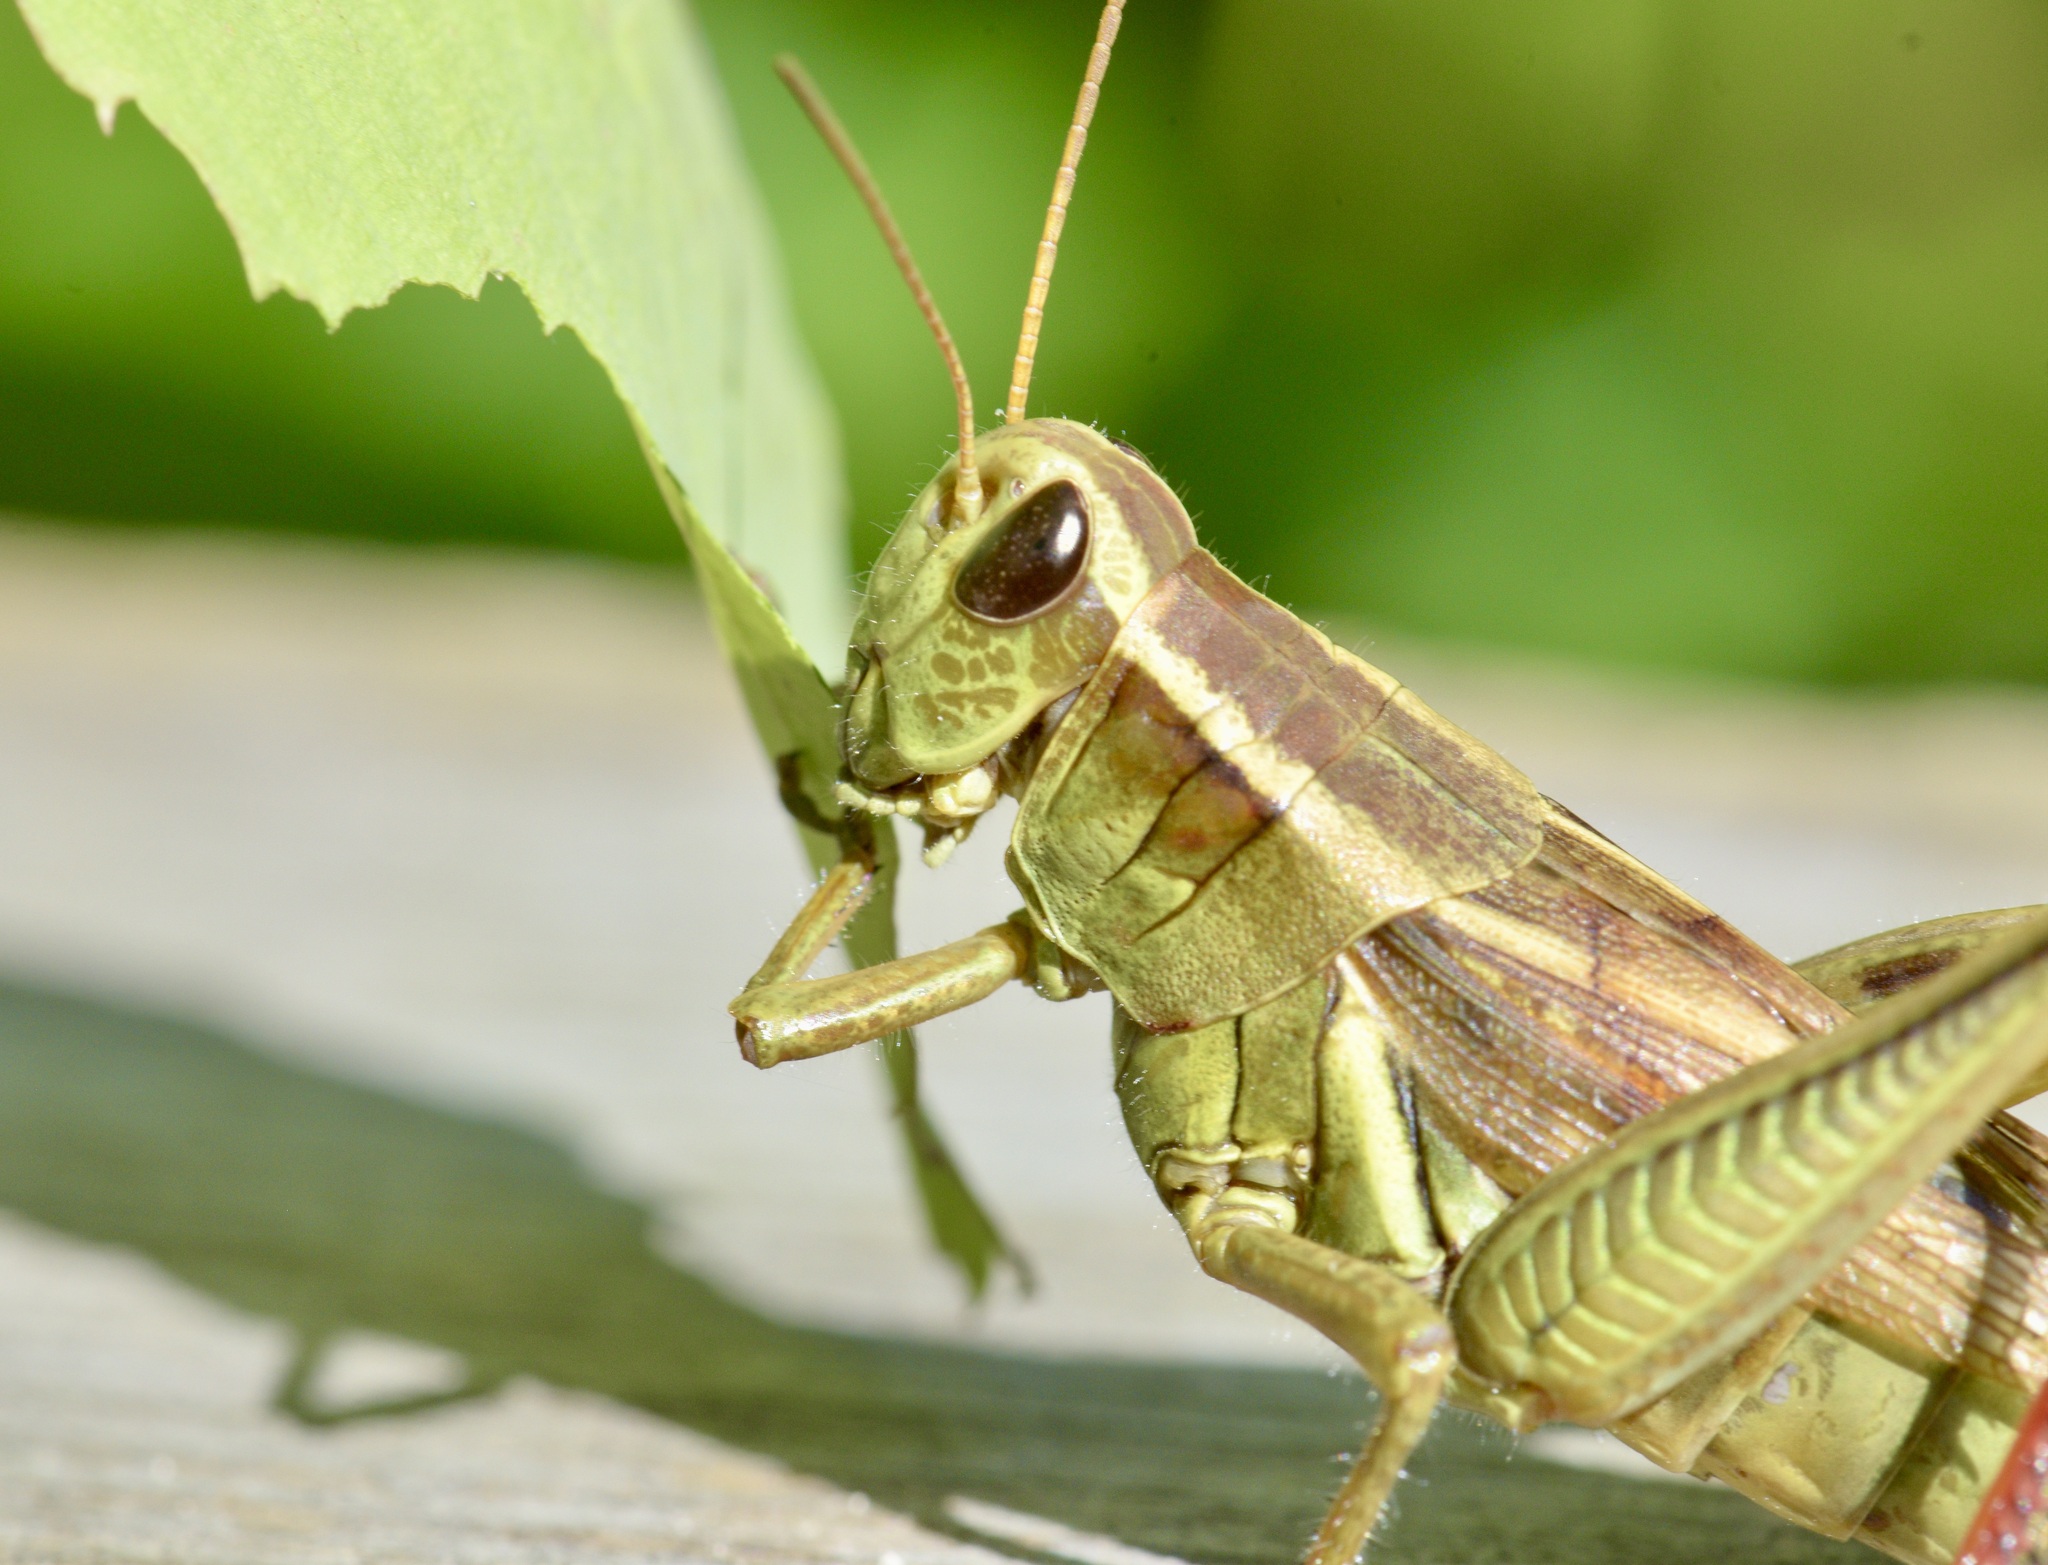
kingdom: Animalia
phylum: Arthropoda
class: Insecta
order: Orthoptera
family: Acrididae
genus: Melanoplus
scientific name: Melanoplus bivittatus
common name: Two-striped grasshopper
